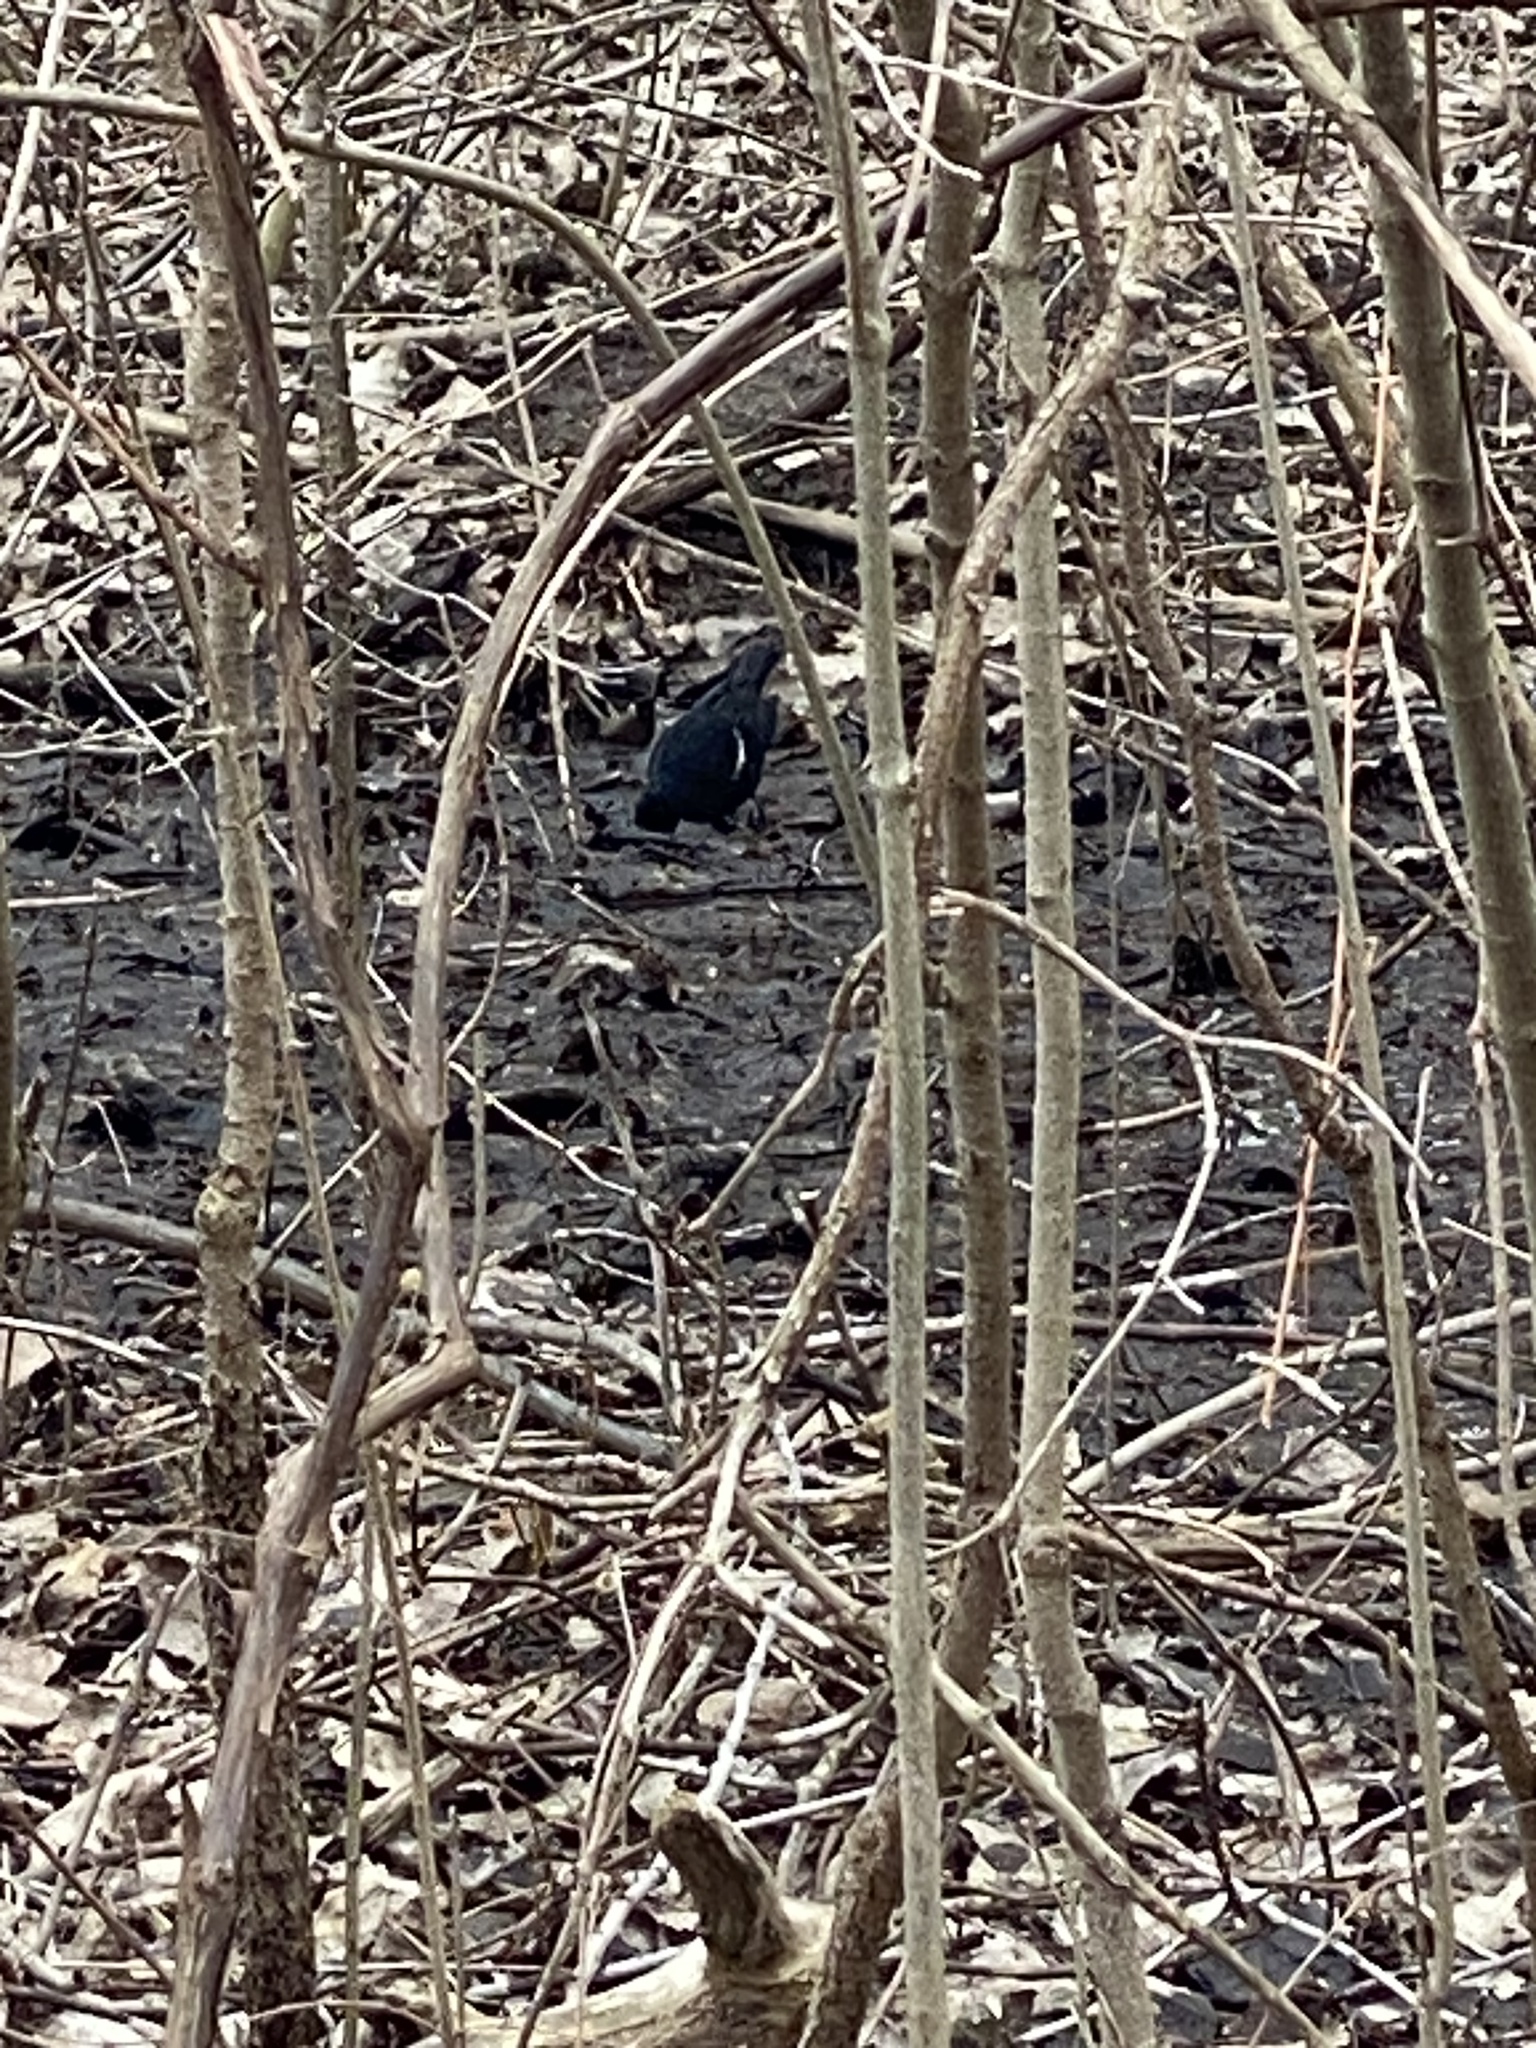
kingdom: Animalia
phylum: Chordata
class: Aves
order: Passeriformes
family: Icteridae
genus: Agelaius
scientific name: Agelaius phoeniceus
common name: Red-winged blackbird
